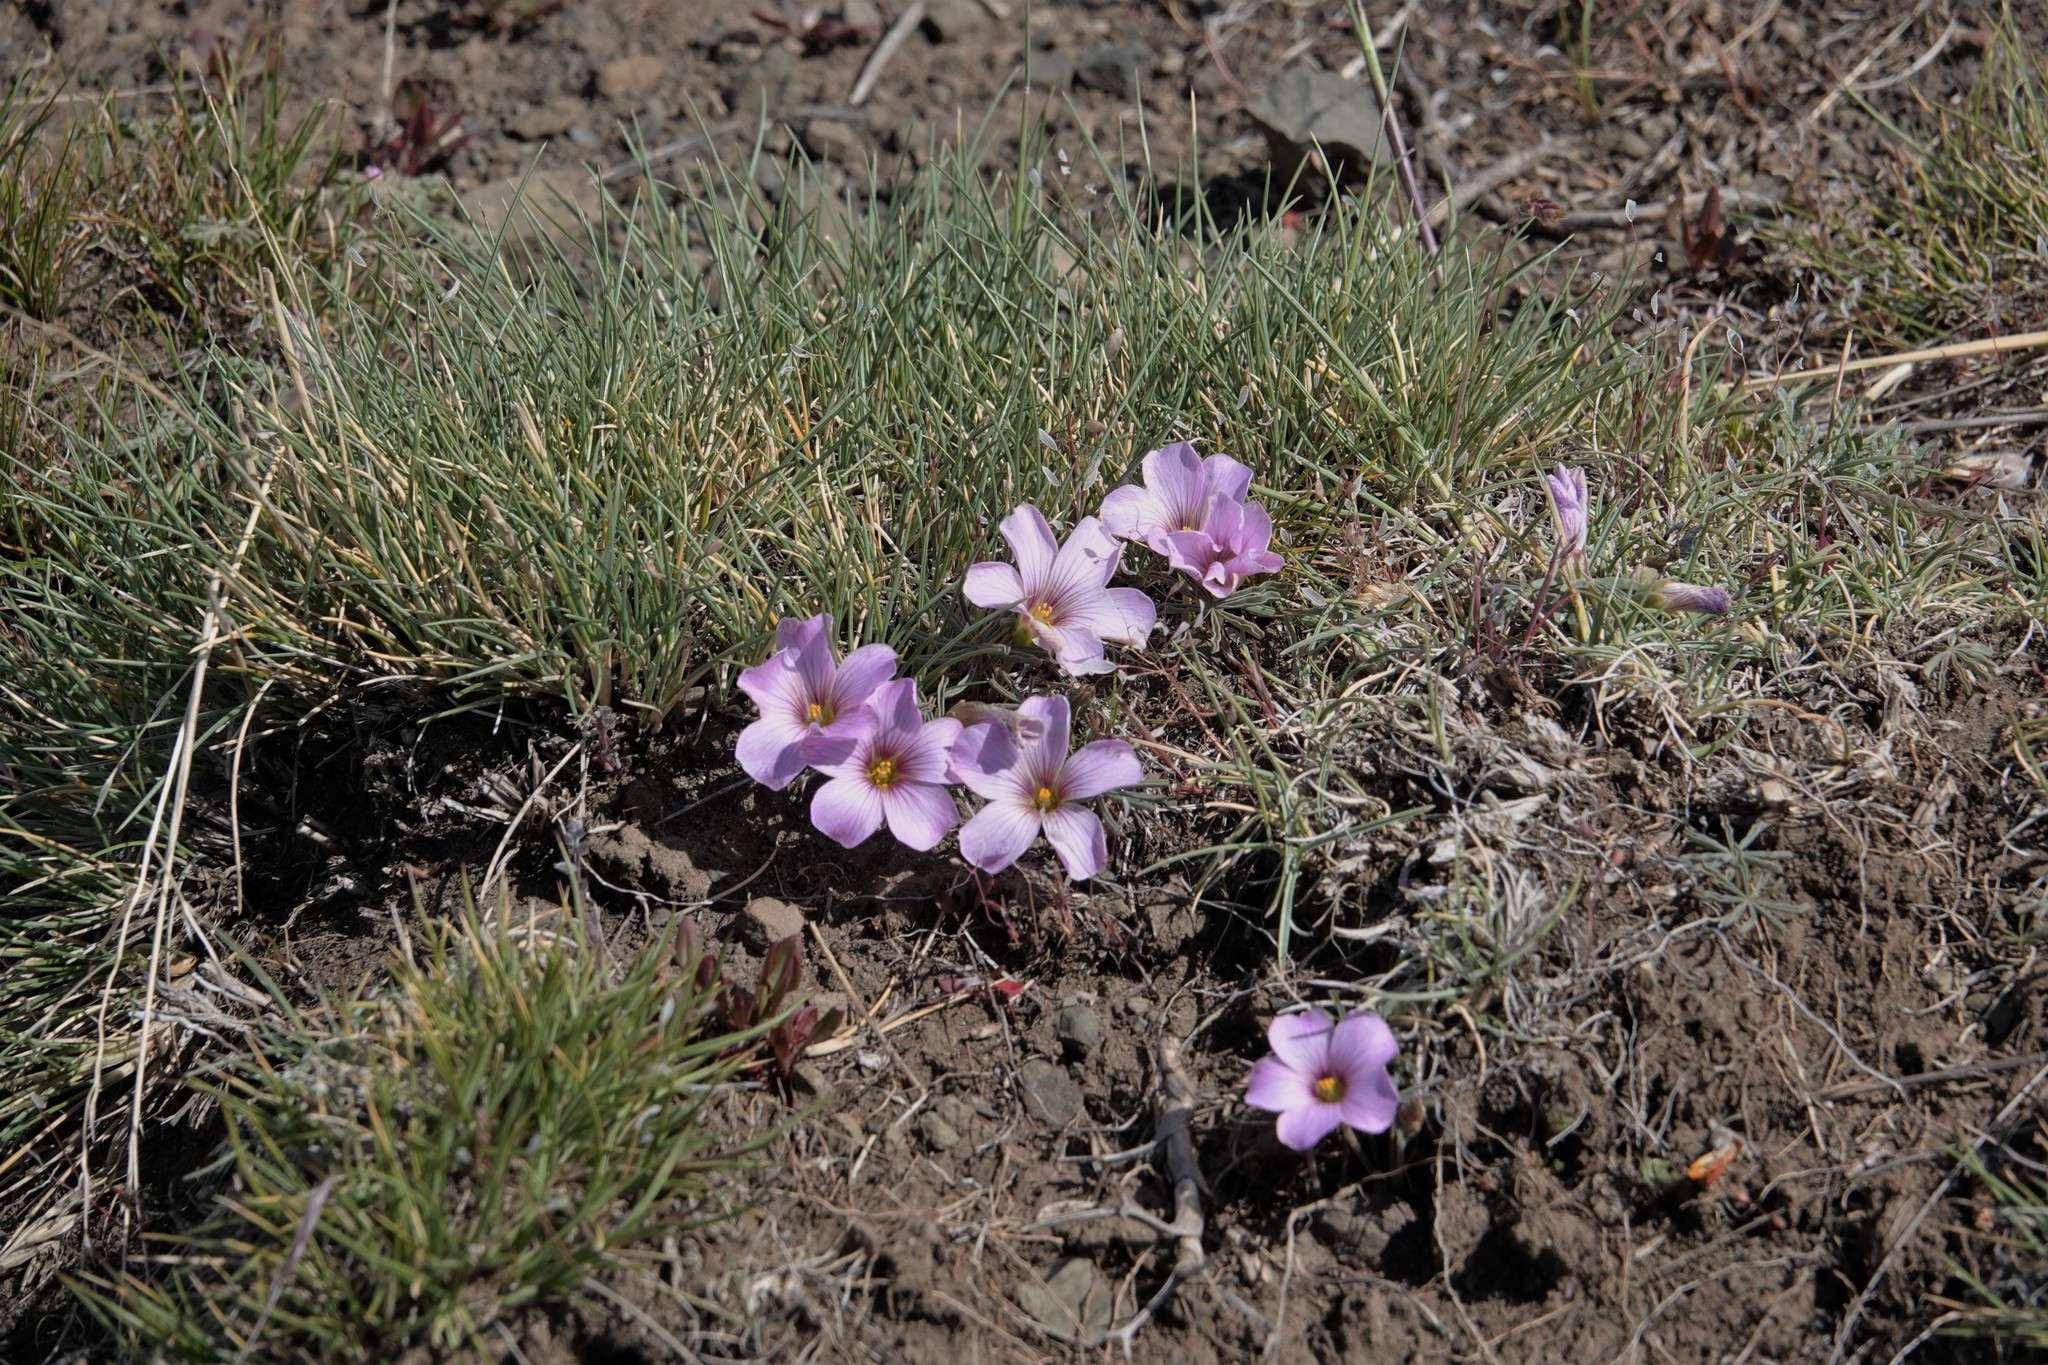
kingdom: Plantae
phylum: Tracheophyta
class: Magnoliopsida
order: Oxalidales
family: Oxalidaceae
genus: Oxalis
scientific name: Oxalis laciniata
